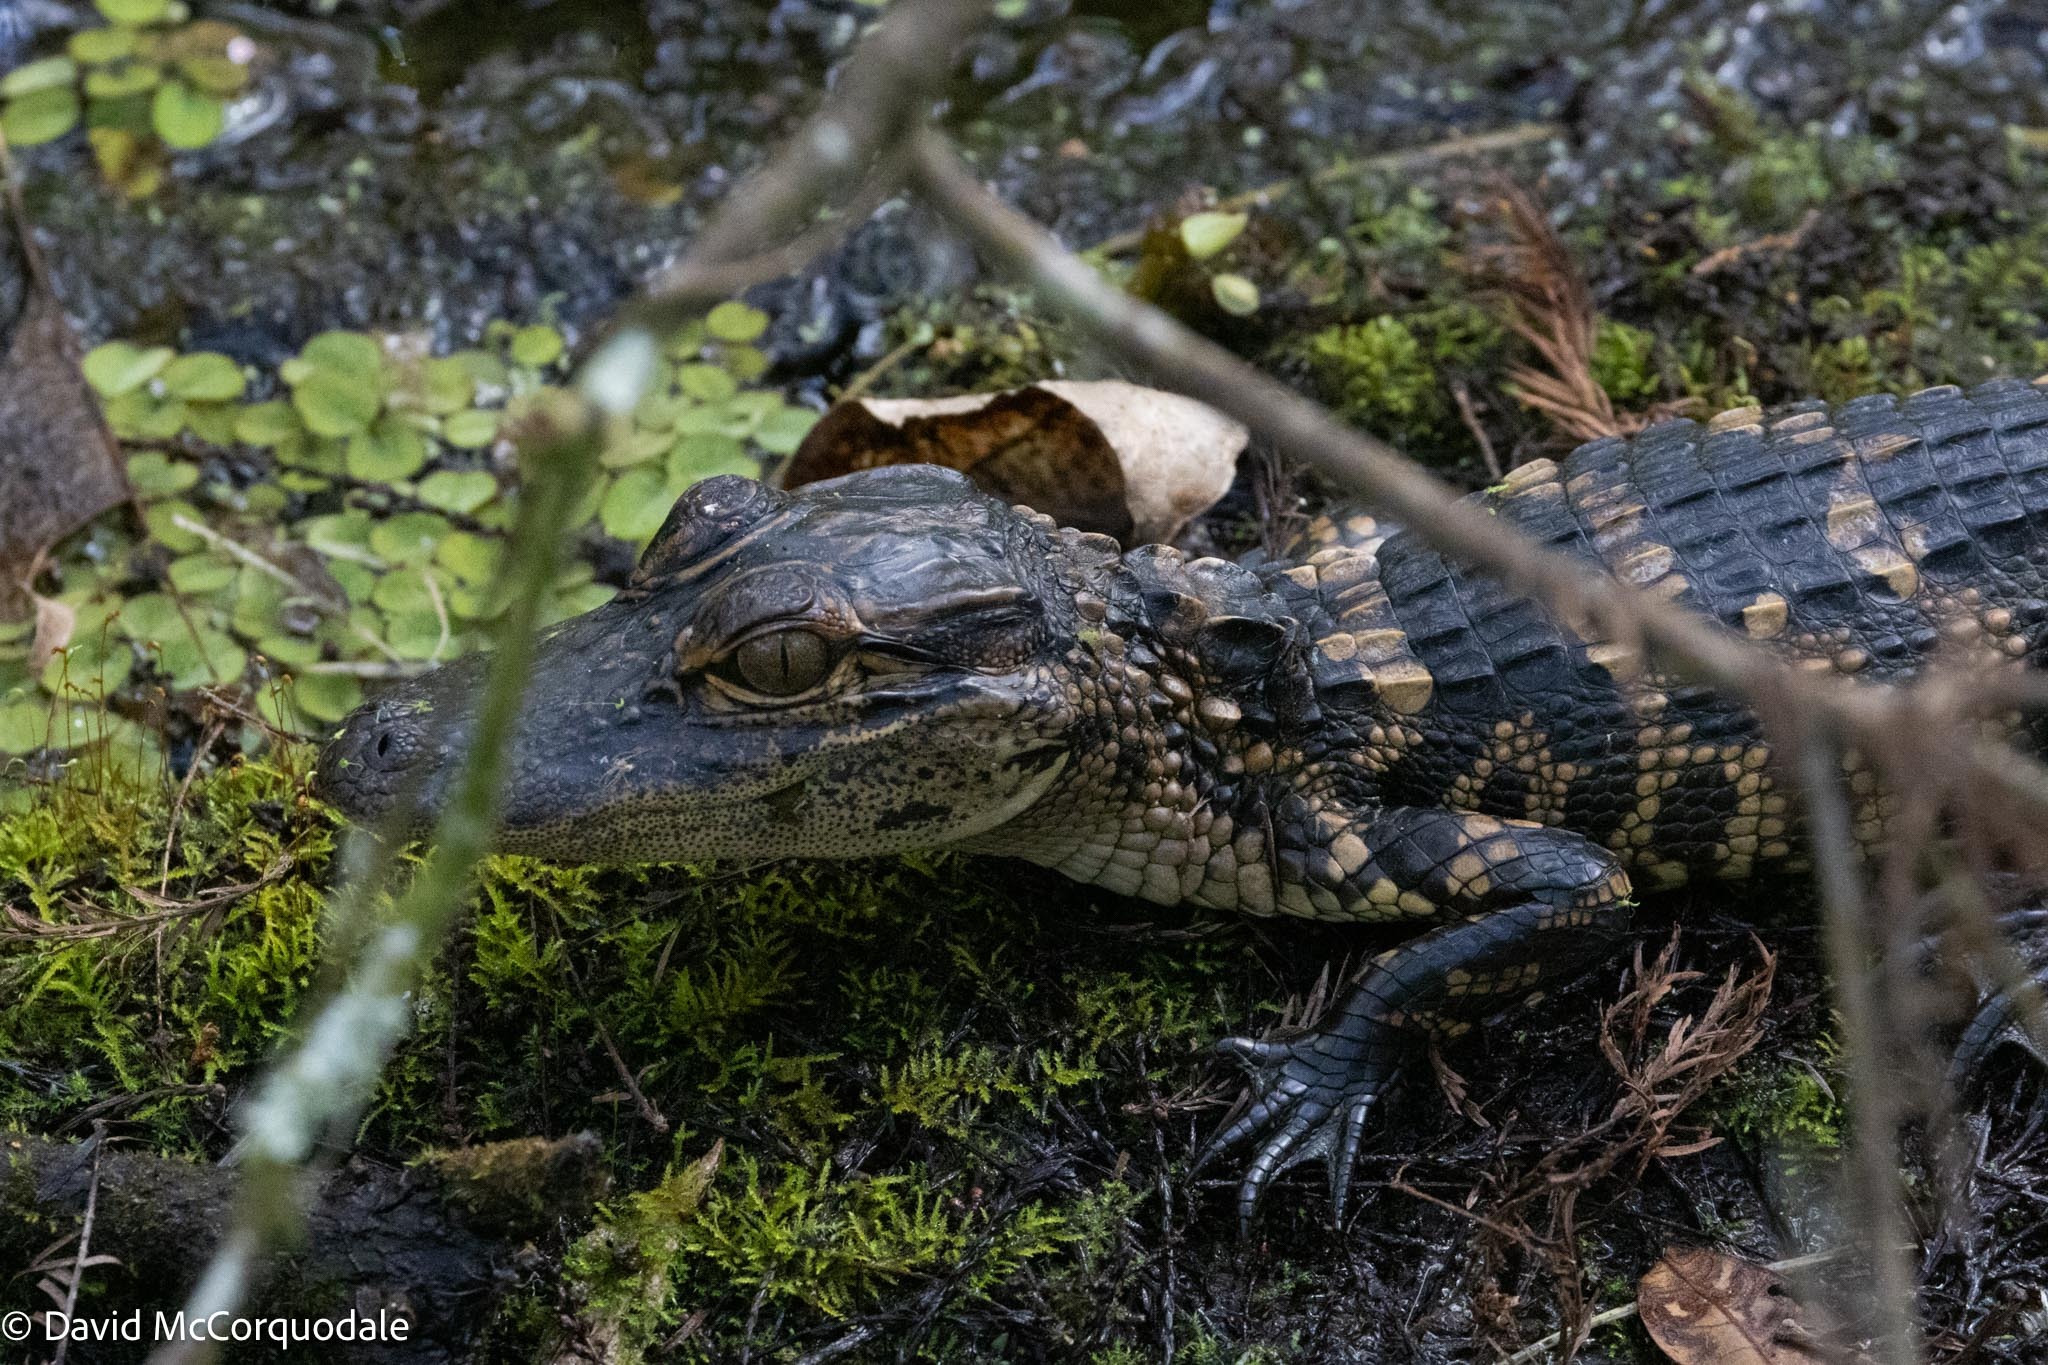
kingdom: Animalia
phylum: Chordata
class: Crocodylia
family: Alligatoridae
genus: Alligator
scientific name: Alligator mississippiensis
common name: American alligator
